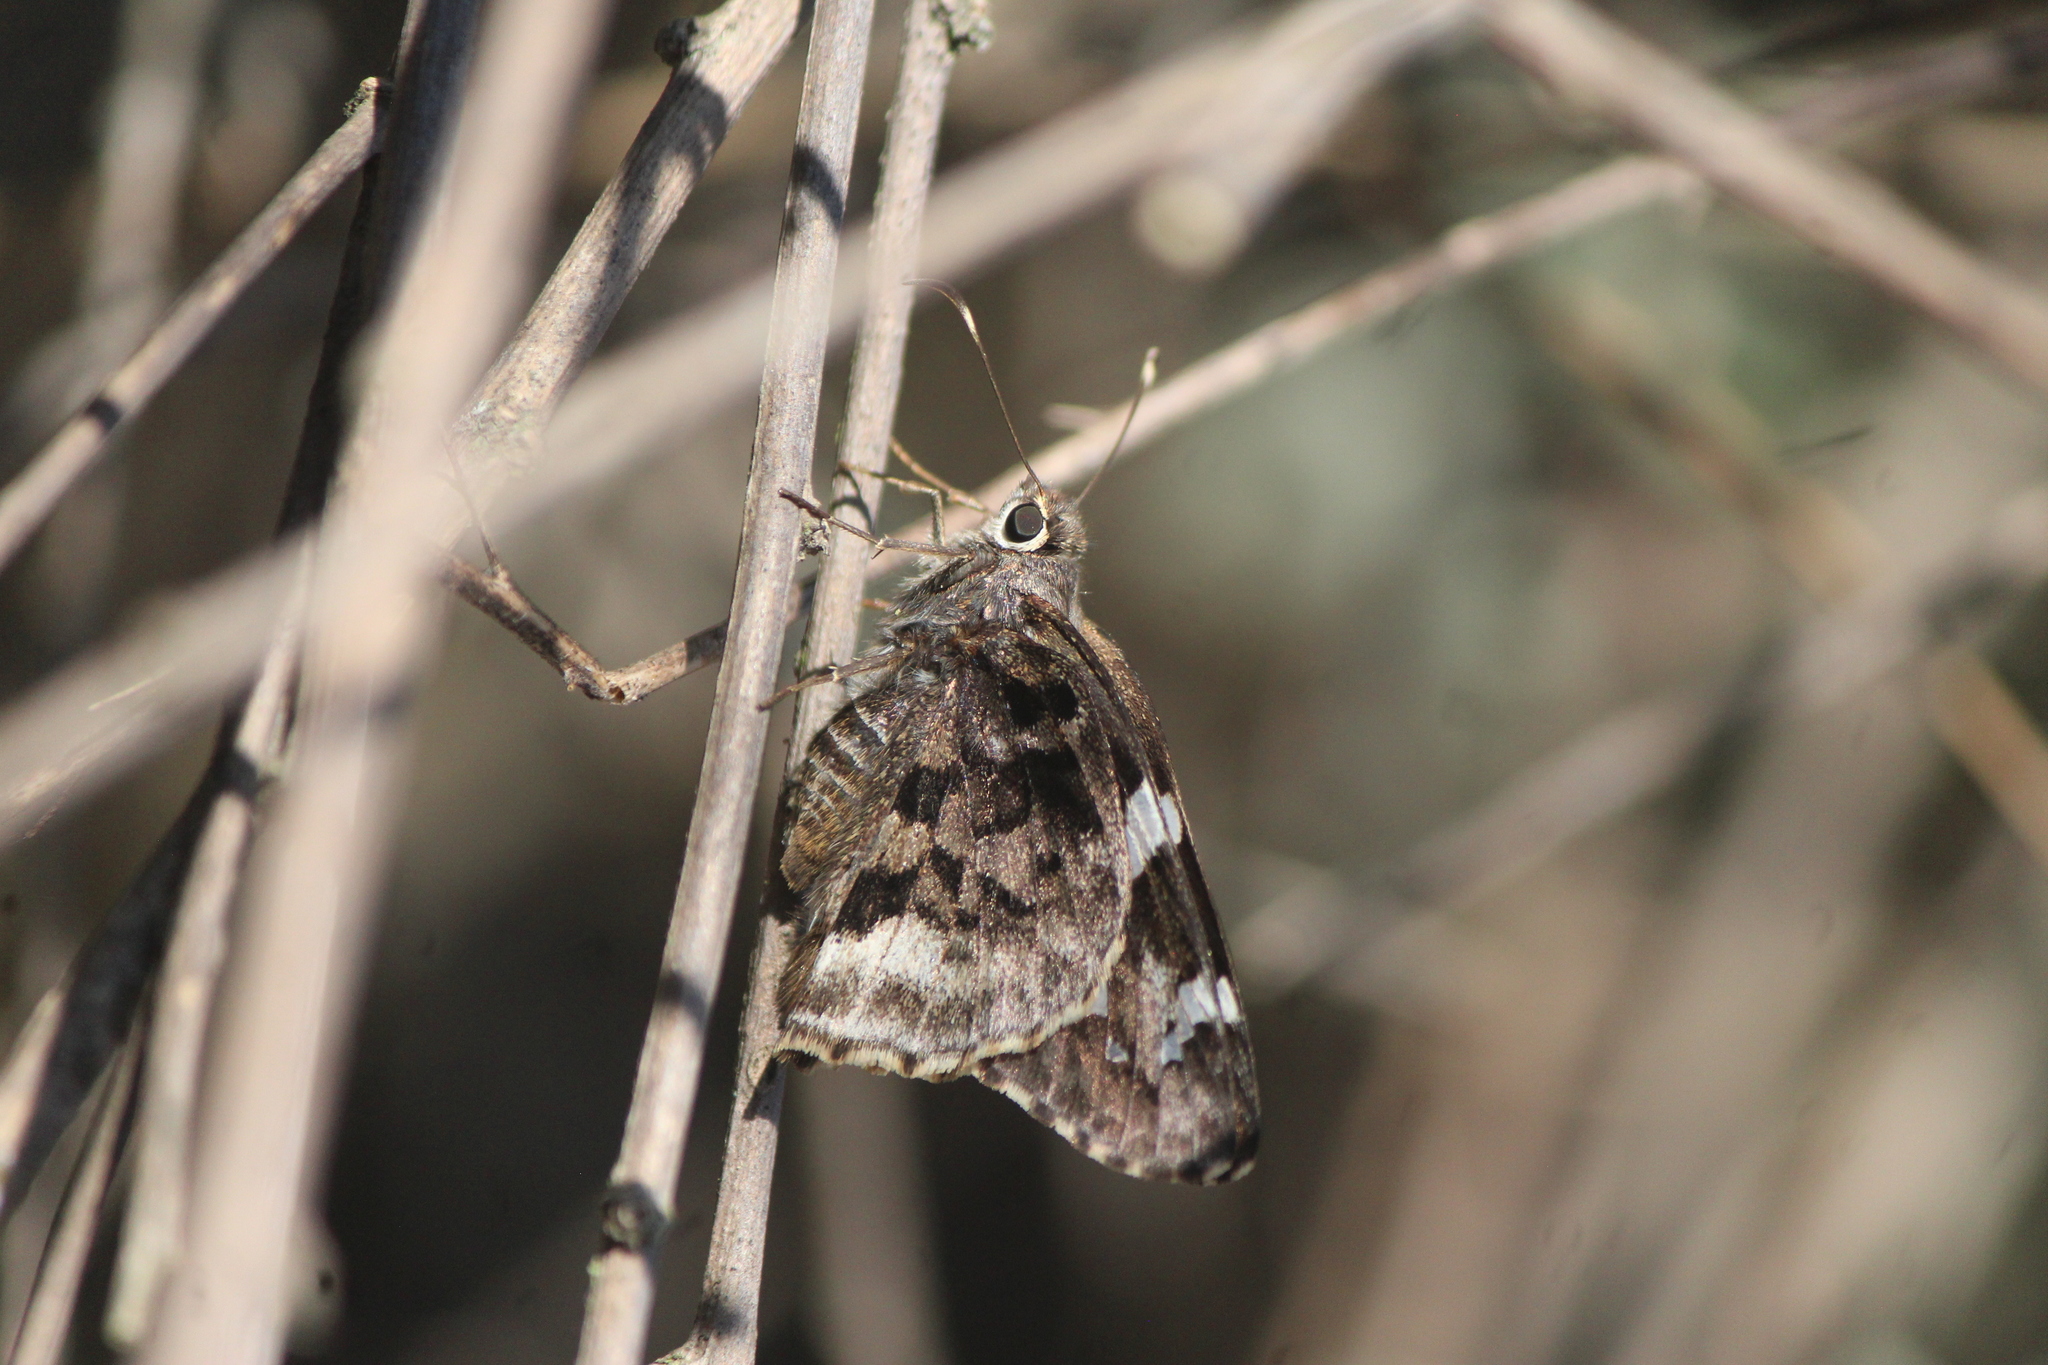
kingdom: Animalia
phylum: Arthropoda
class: Insecta
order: Lepidoptera
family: Hesperiidae
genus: Codatractus
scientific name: Codatractus arizonensis
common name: Arizona skipper
